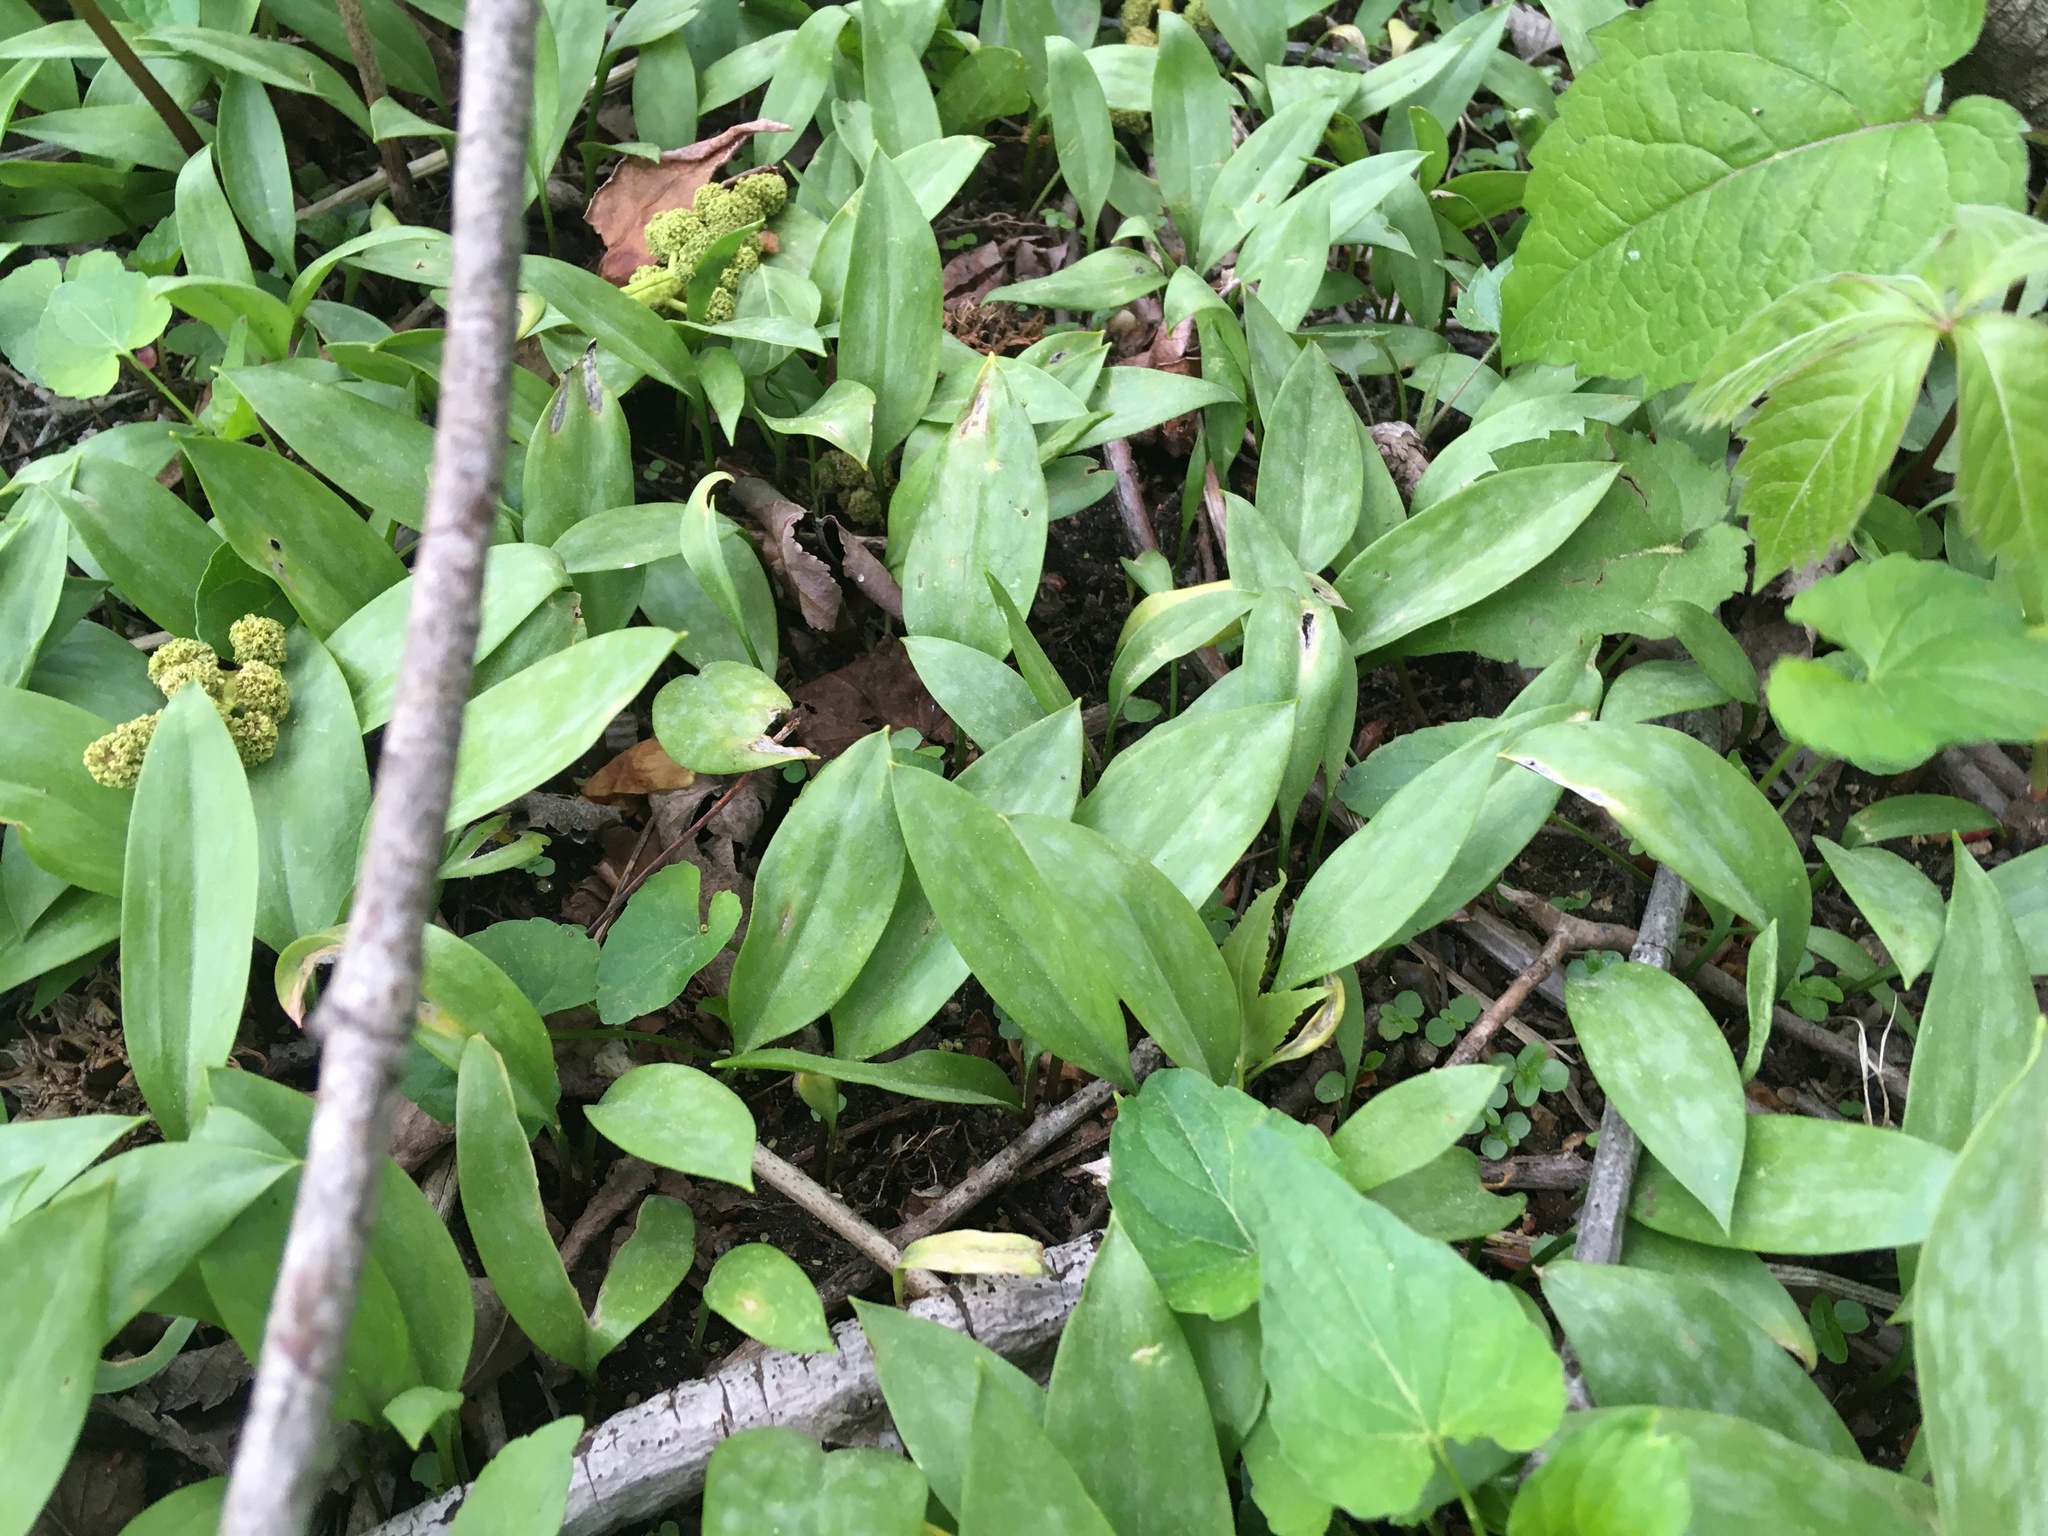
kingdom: Plantae
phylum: Tracheophyta
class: Liliopsida
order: Liliales
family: Liliaceae
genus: Erythronium
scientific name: Erythronium americanum
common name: Yellow adder's-tongue
